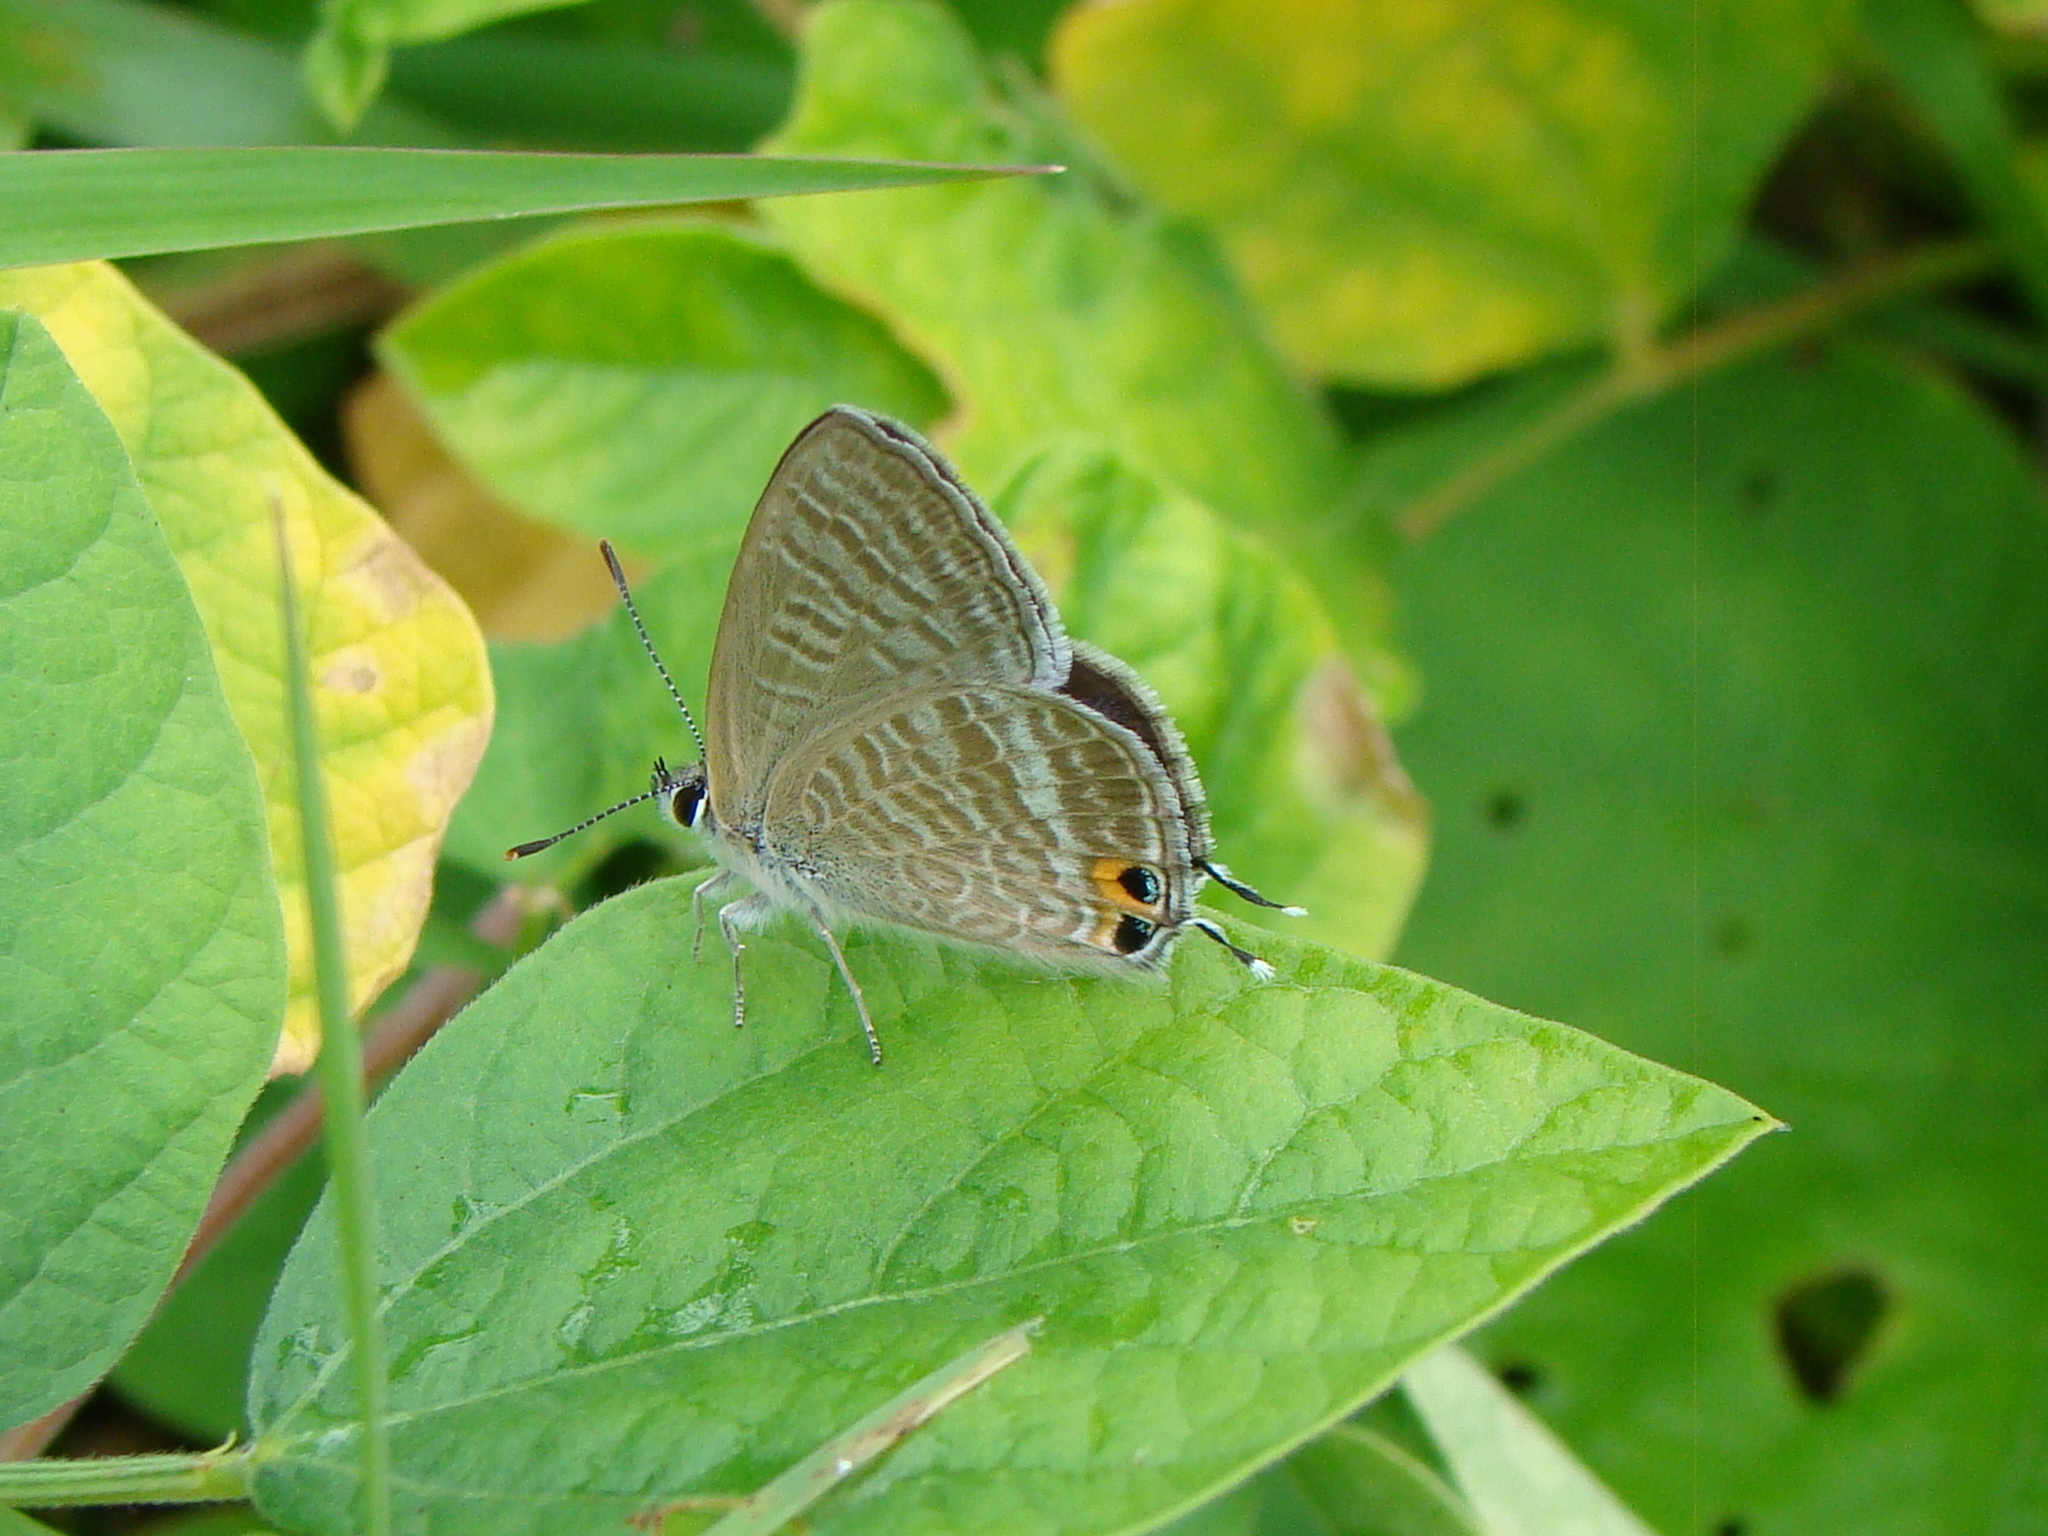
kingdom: Animalia
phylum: Arthropoda
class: Insecta
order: Lepidoptera
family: Lycaenidae
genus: Lampides
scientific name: Lampides boeticus
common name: Long-tailed blue
